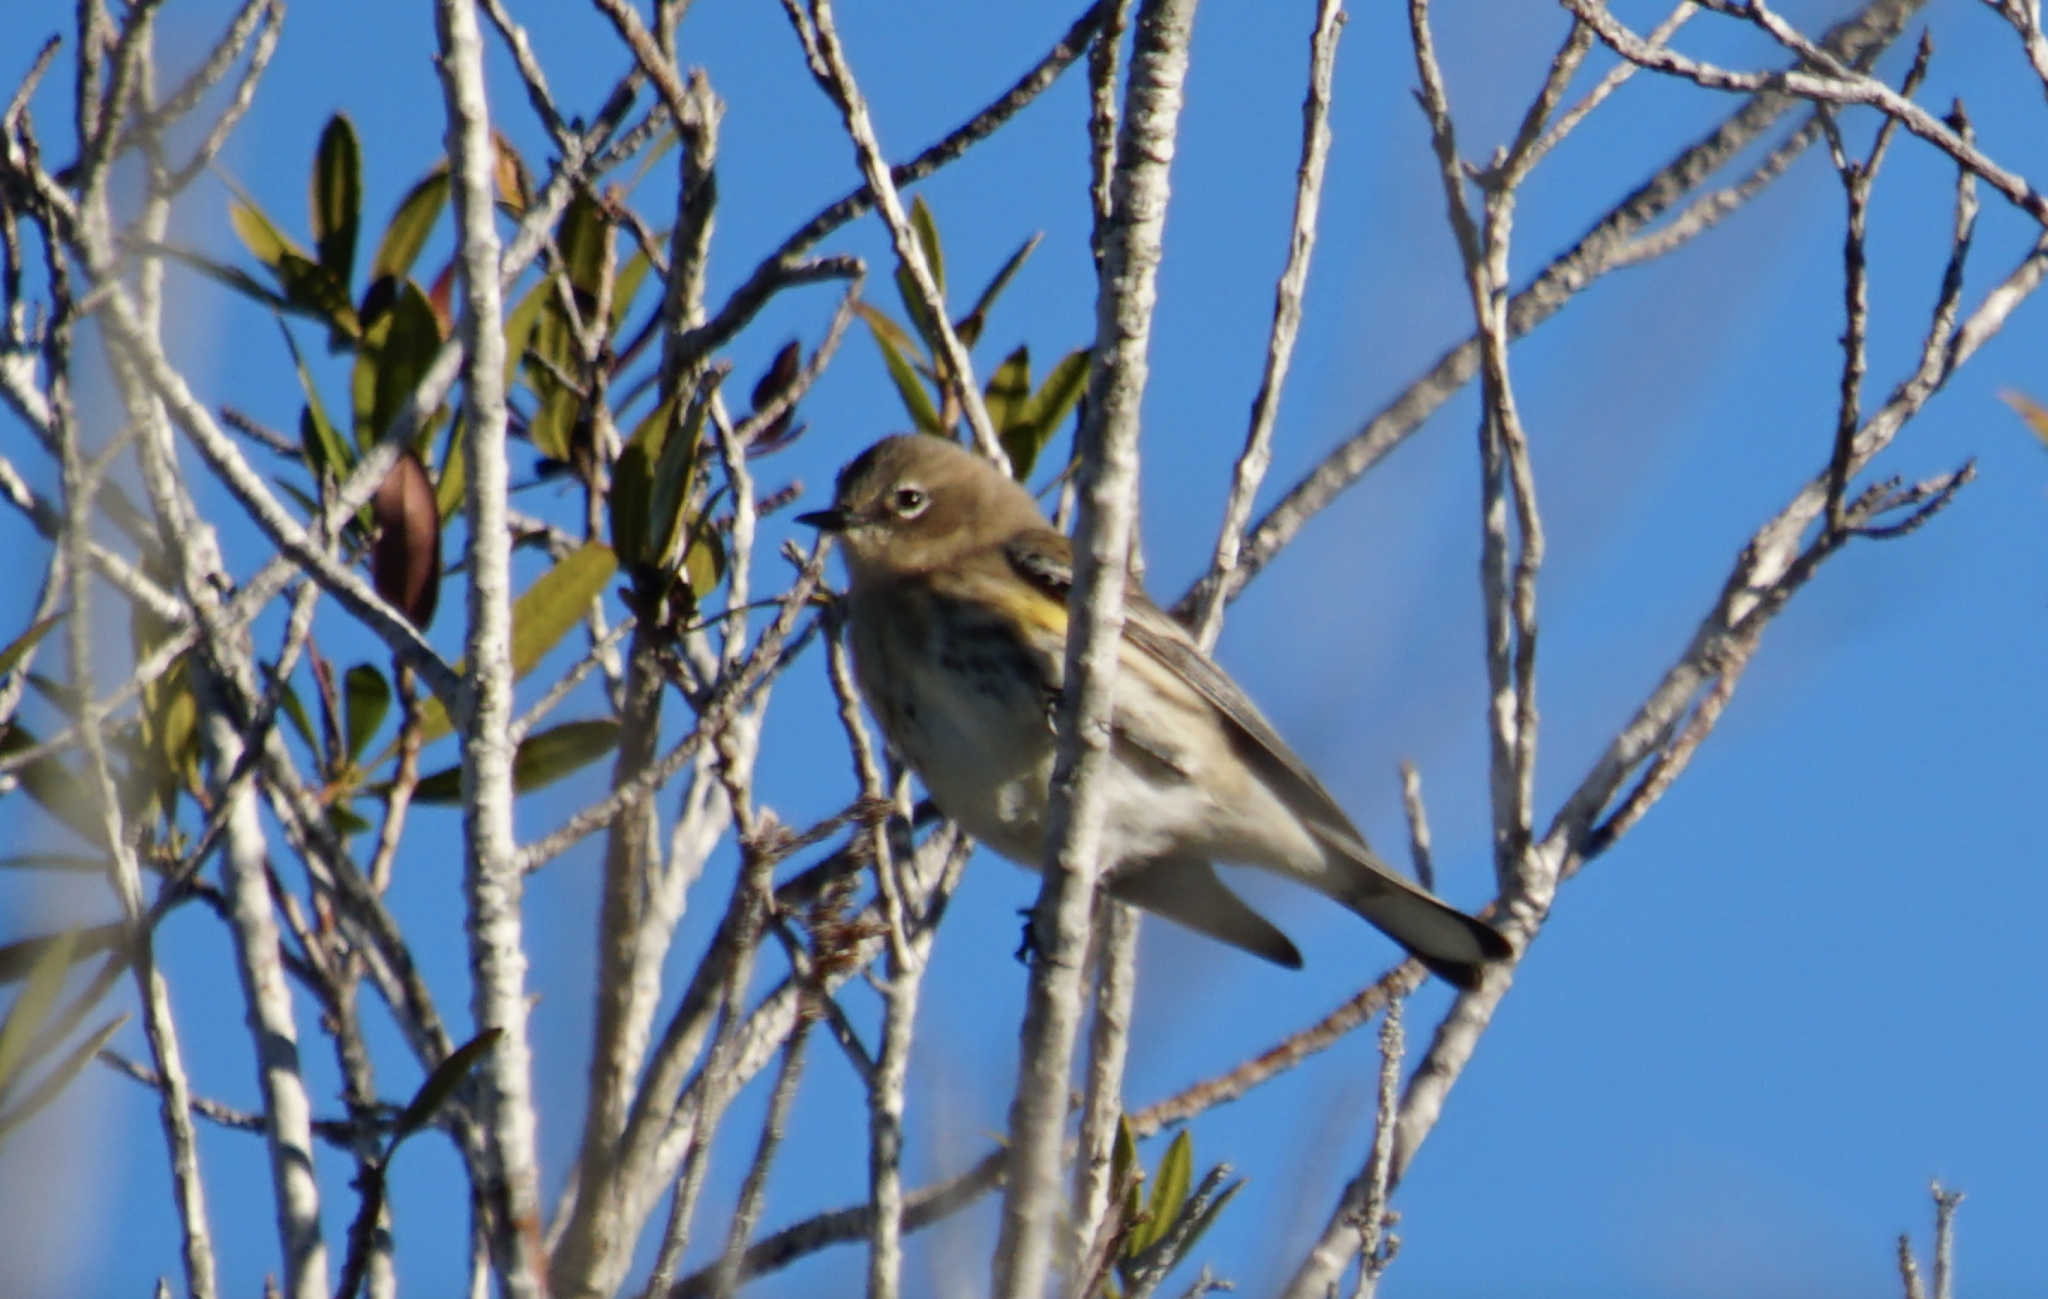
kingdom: Animalia
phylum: Chordata
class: Aves
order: Passeriformes
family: Parulidae
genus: Setophaga
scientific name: Setophaga coronata
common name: Myrtle warbler
